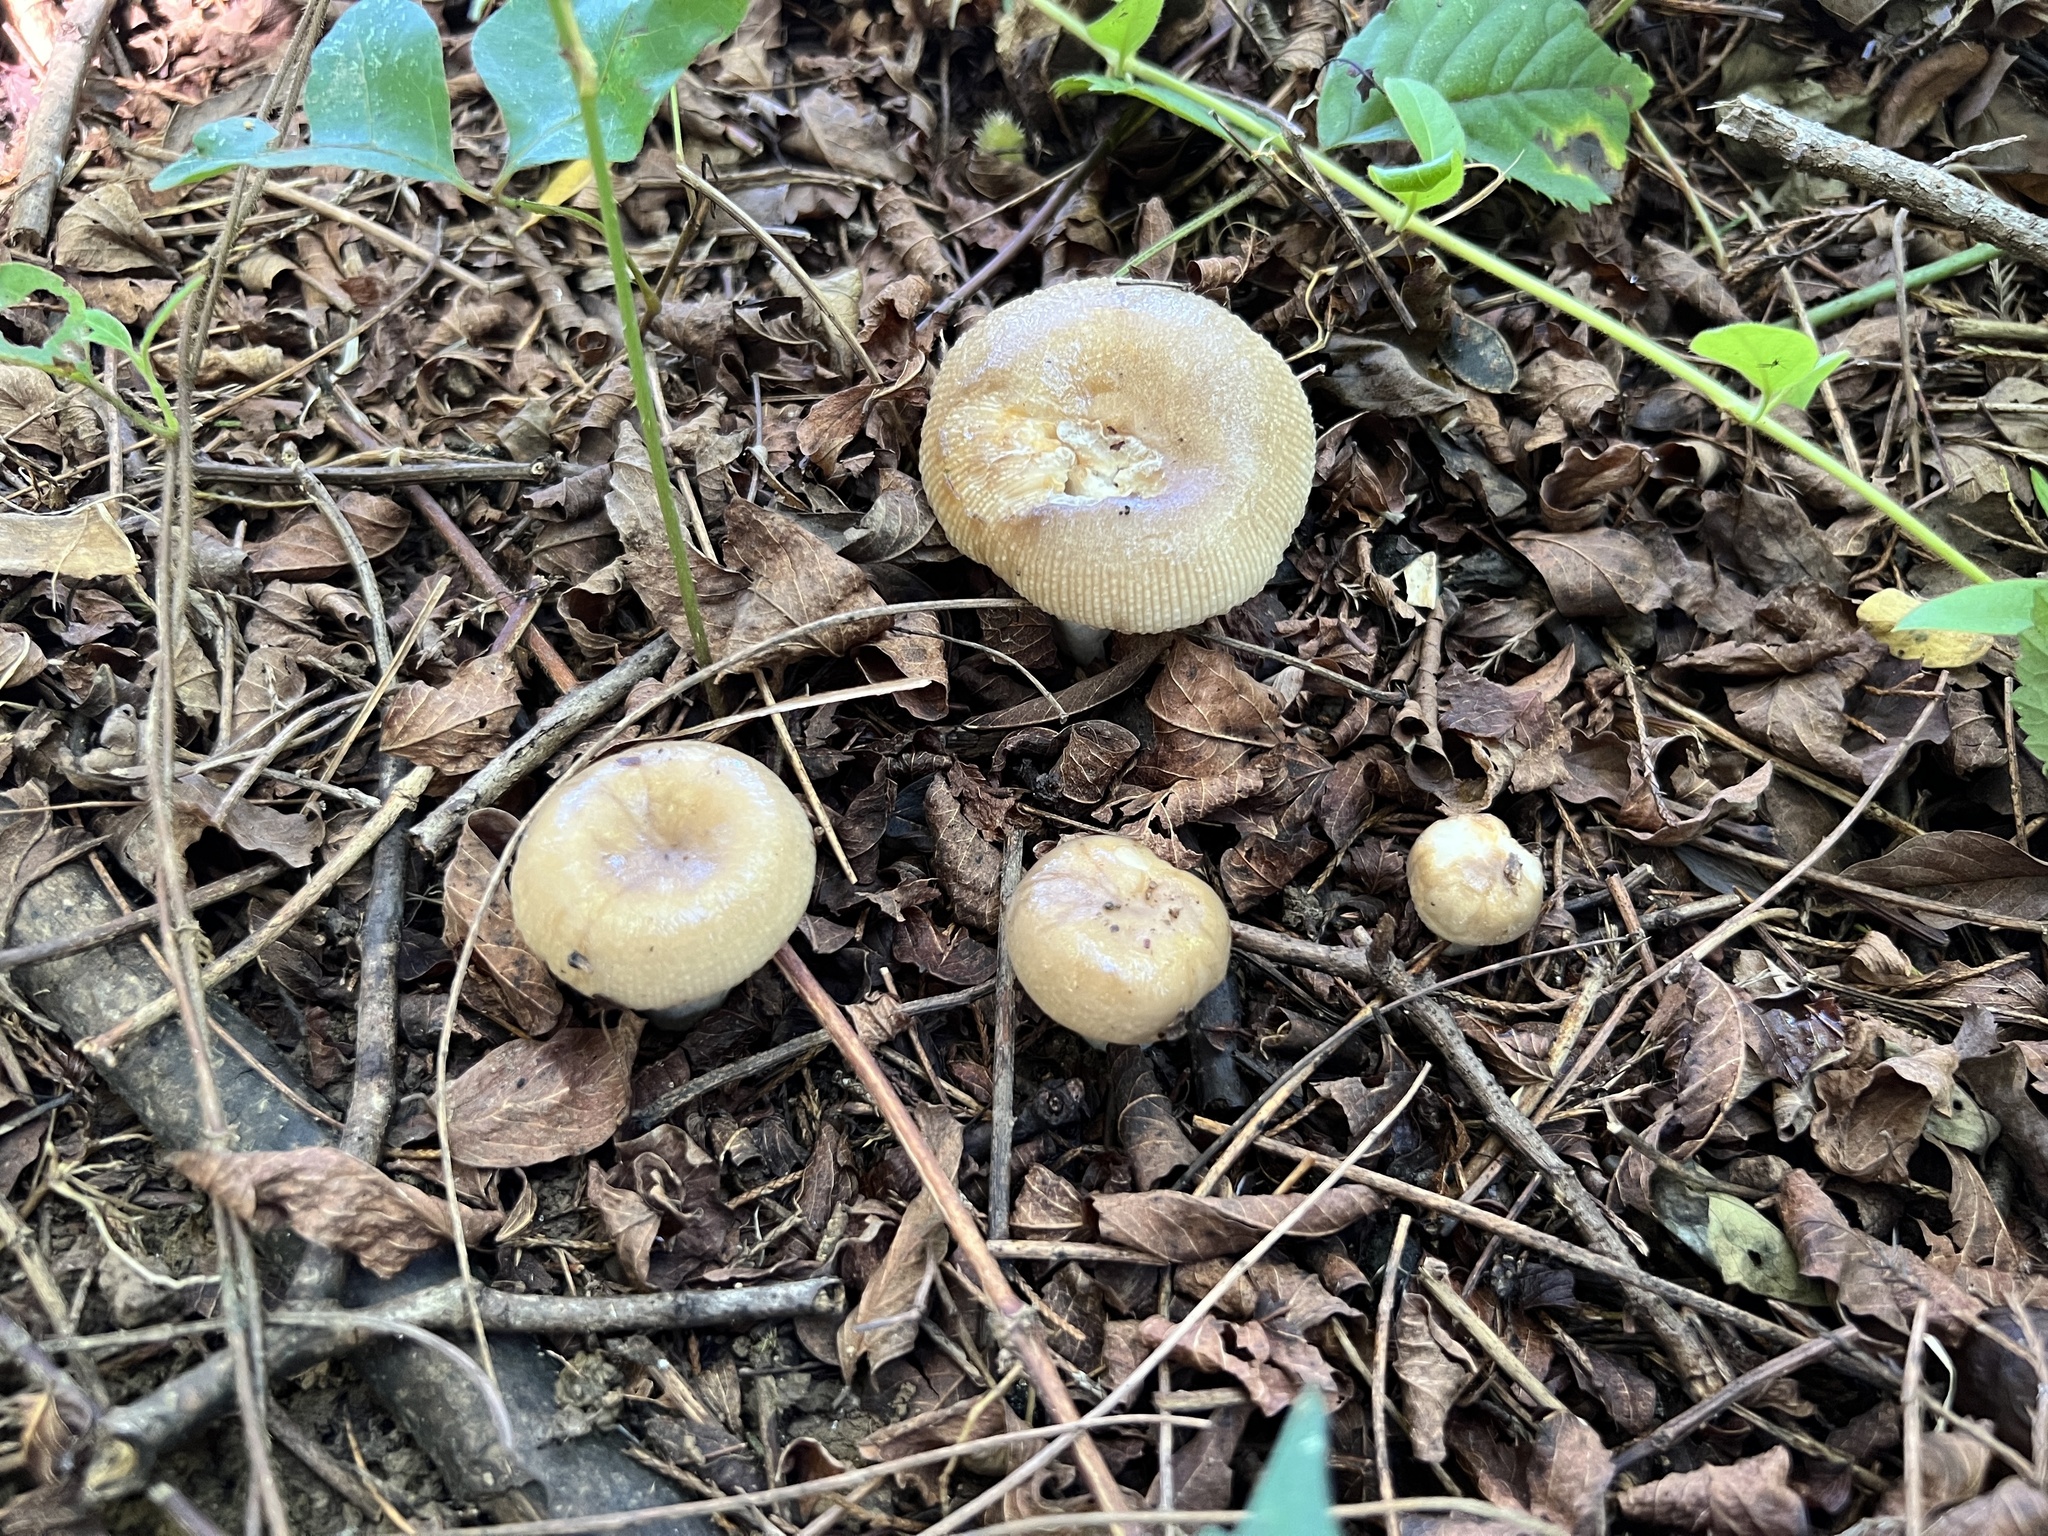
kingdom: Fungi
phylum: Basidiomycota
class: Agaricomycetes
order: Russulales
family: Russulaceae
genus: Russula
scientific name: Russula amoenolens
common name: Camembert brittlegill
